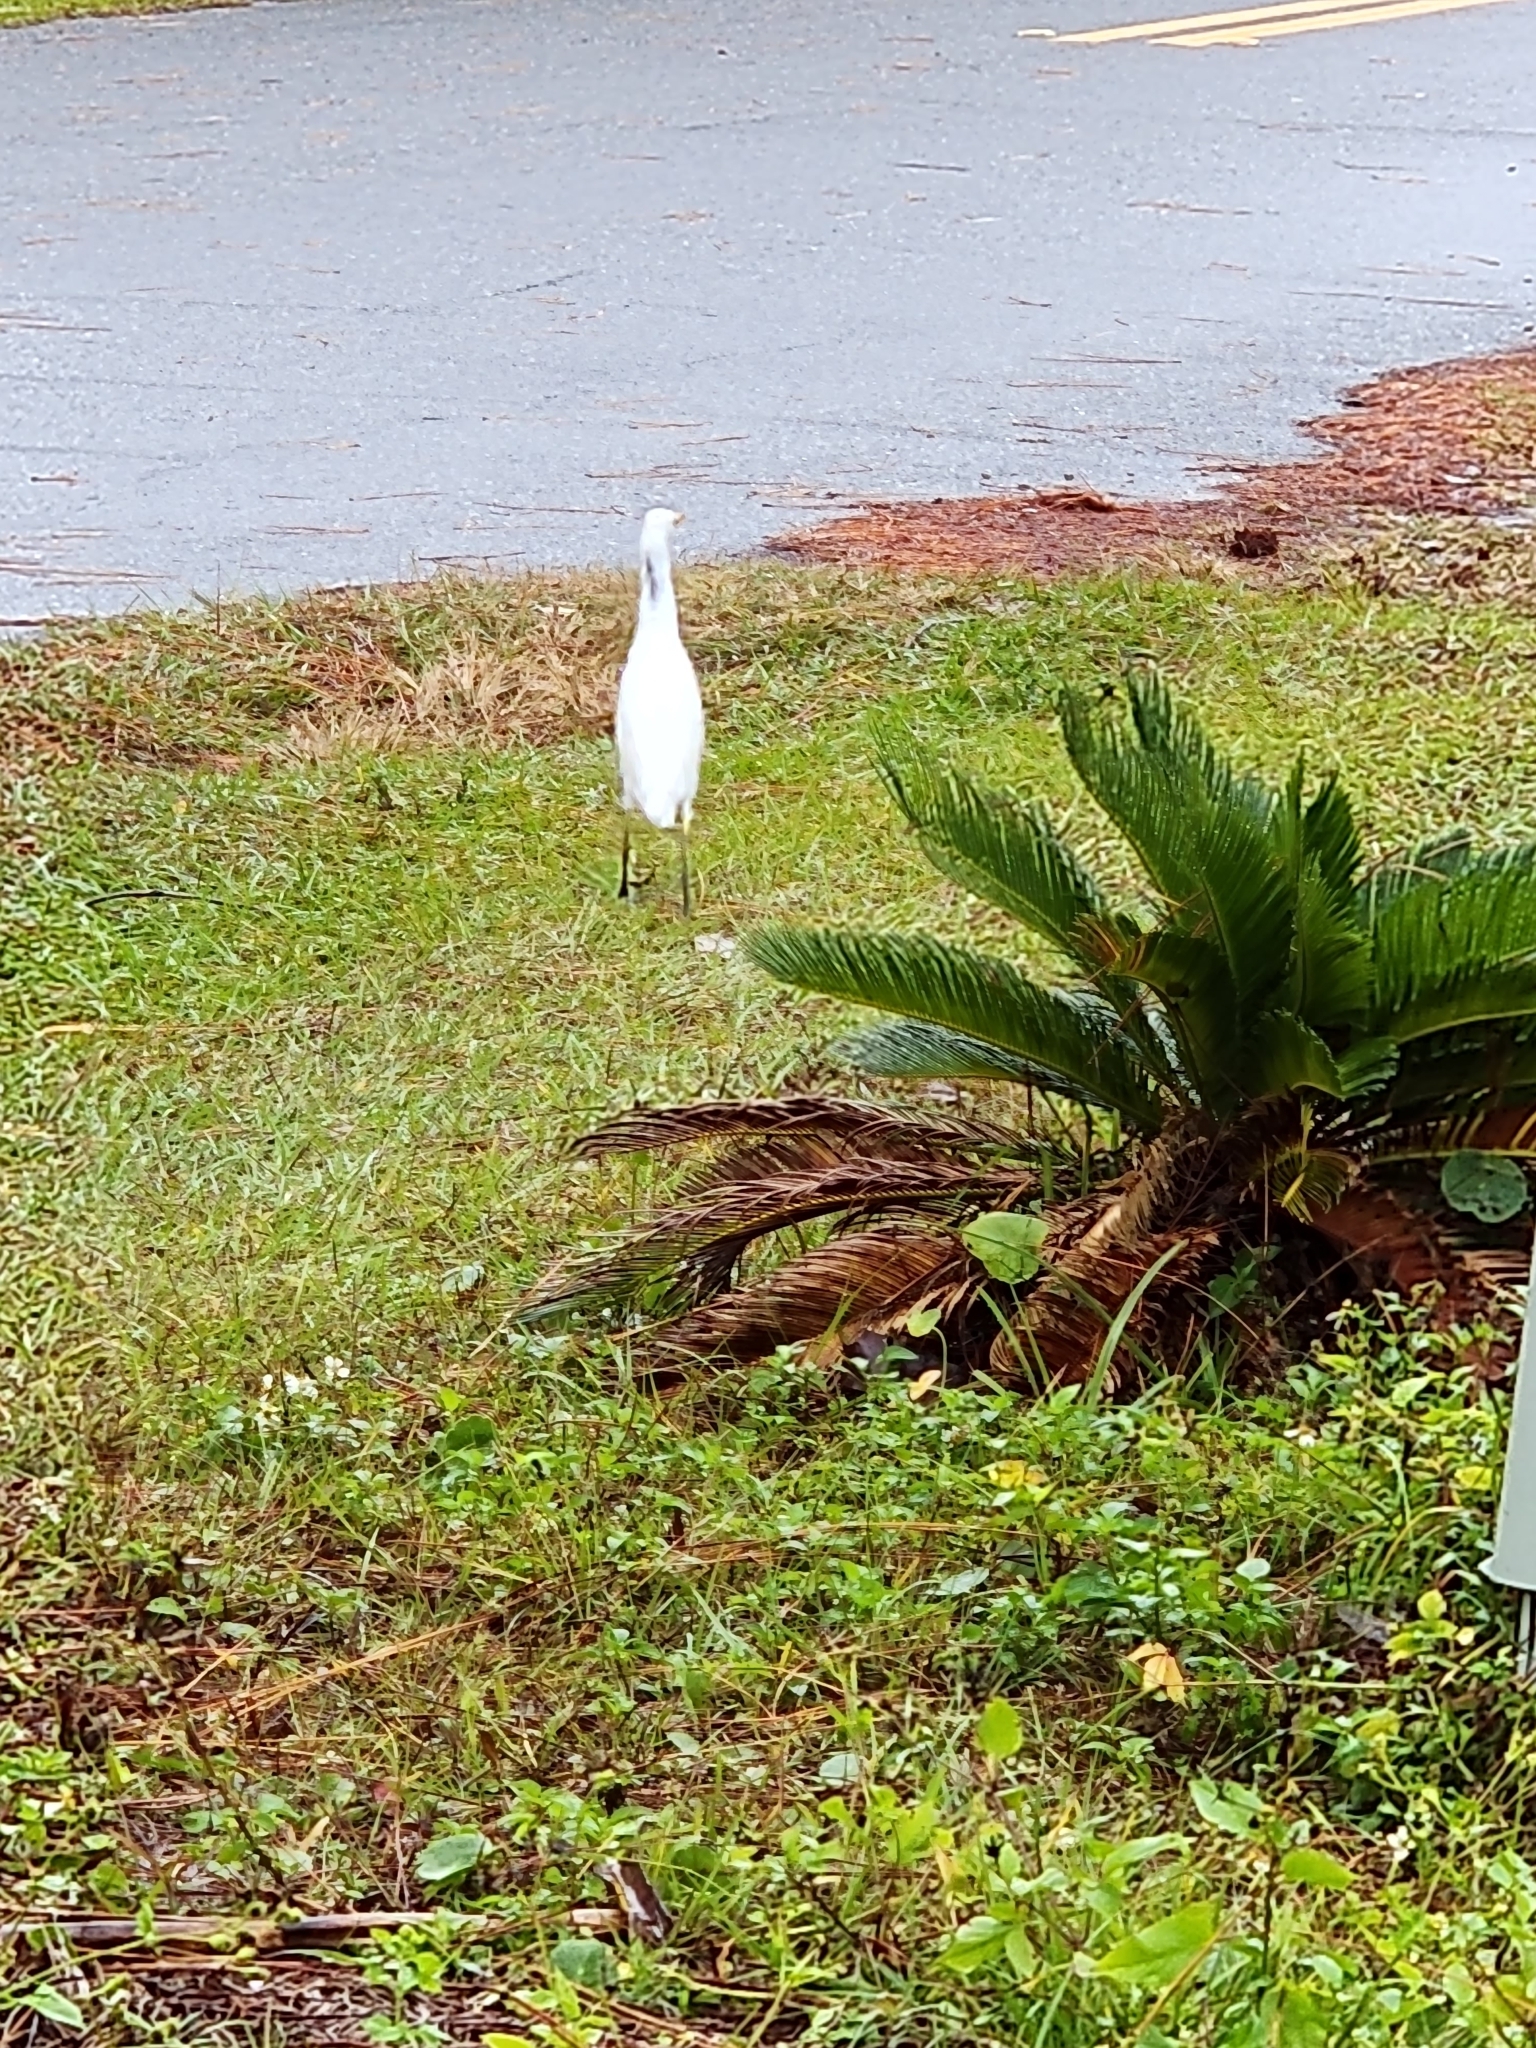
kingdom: Animalia
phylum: Chordata
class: Aves
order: Pelecaniformes
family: Ardeidae
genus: Bubulcus
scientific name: Bubulcus ibis
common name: Cattle egret
